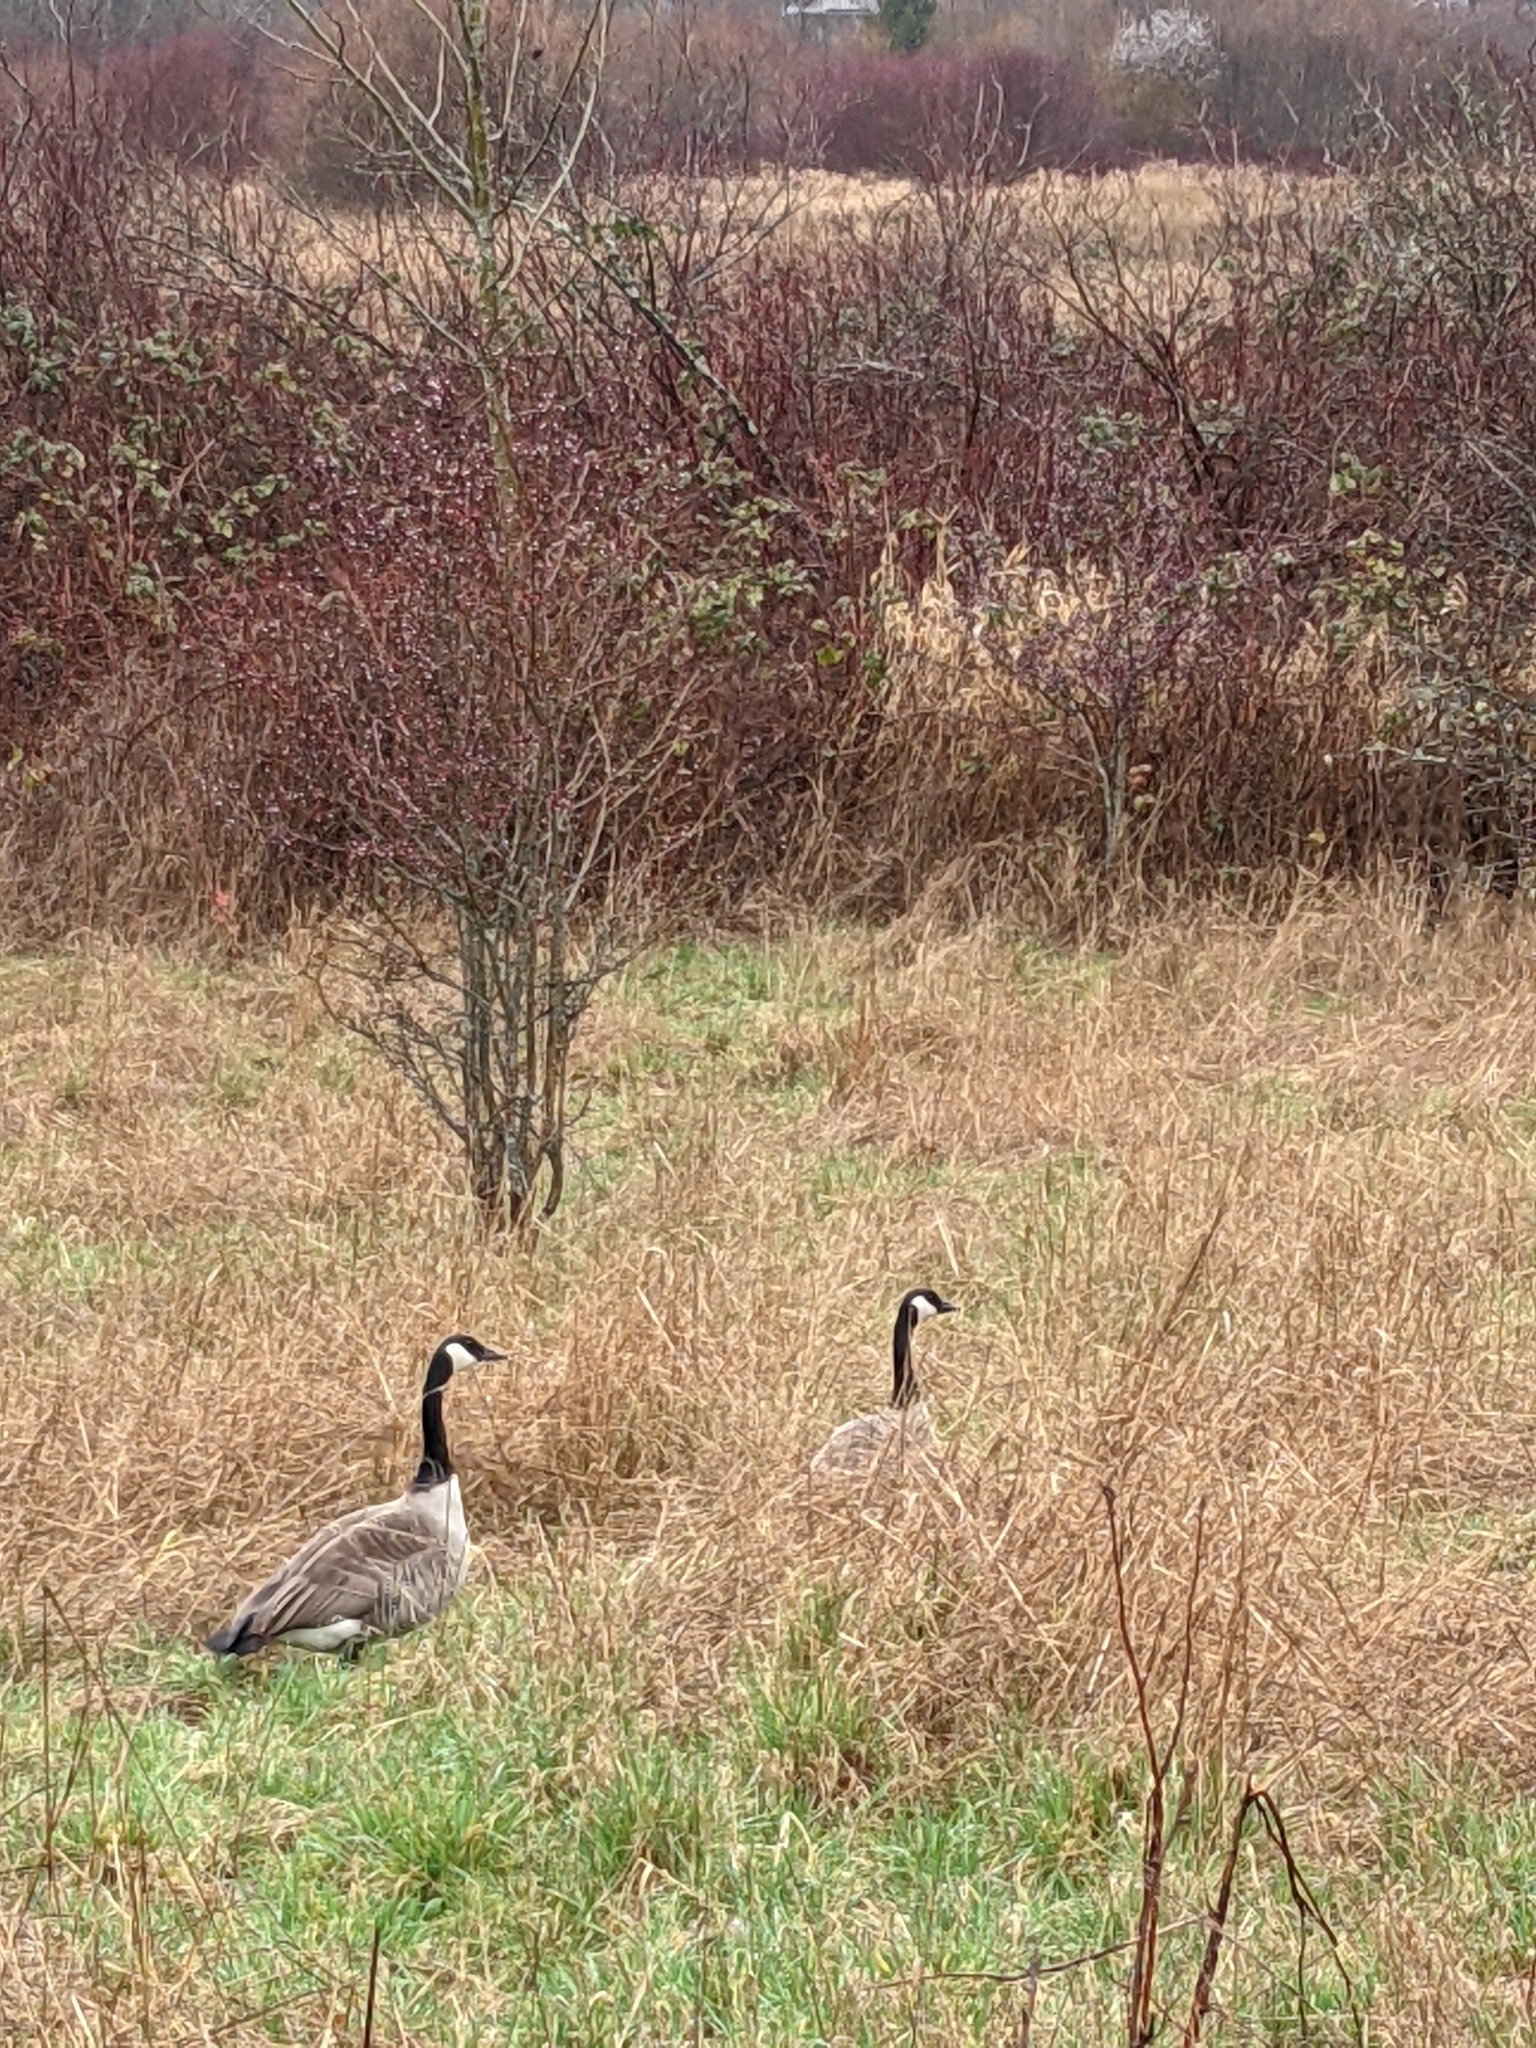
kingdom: Animalia
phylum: Chordata
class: Aves
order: Anseriformes
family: Anatidae
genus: Branta
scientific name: Branta canadensis
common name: Canada goose
